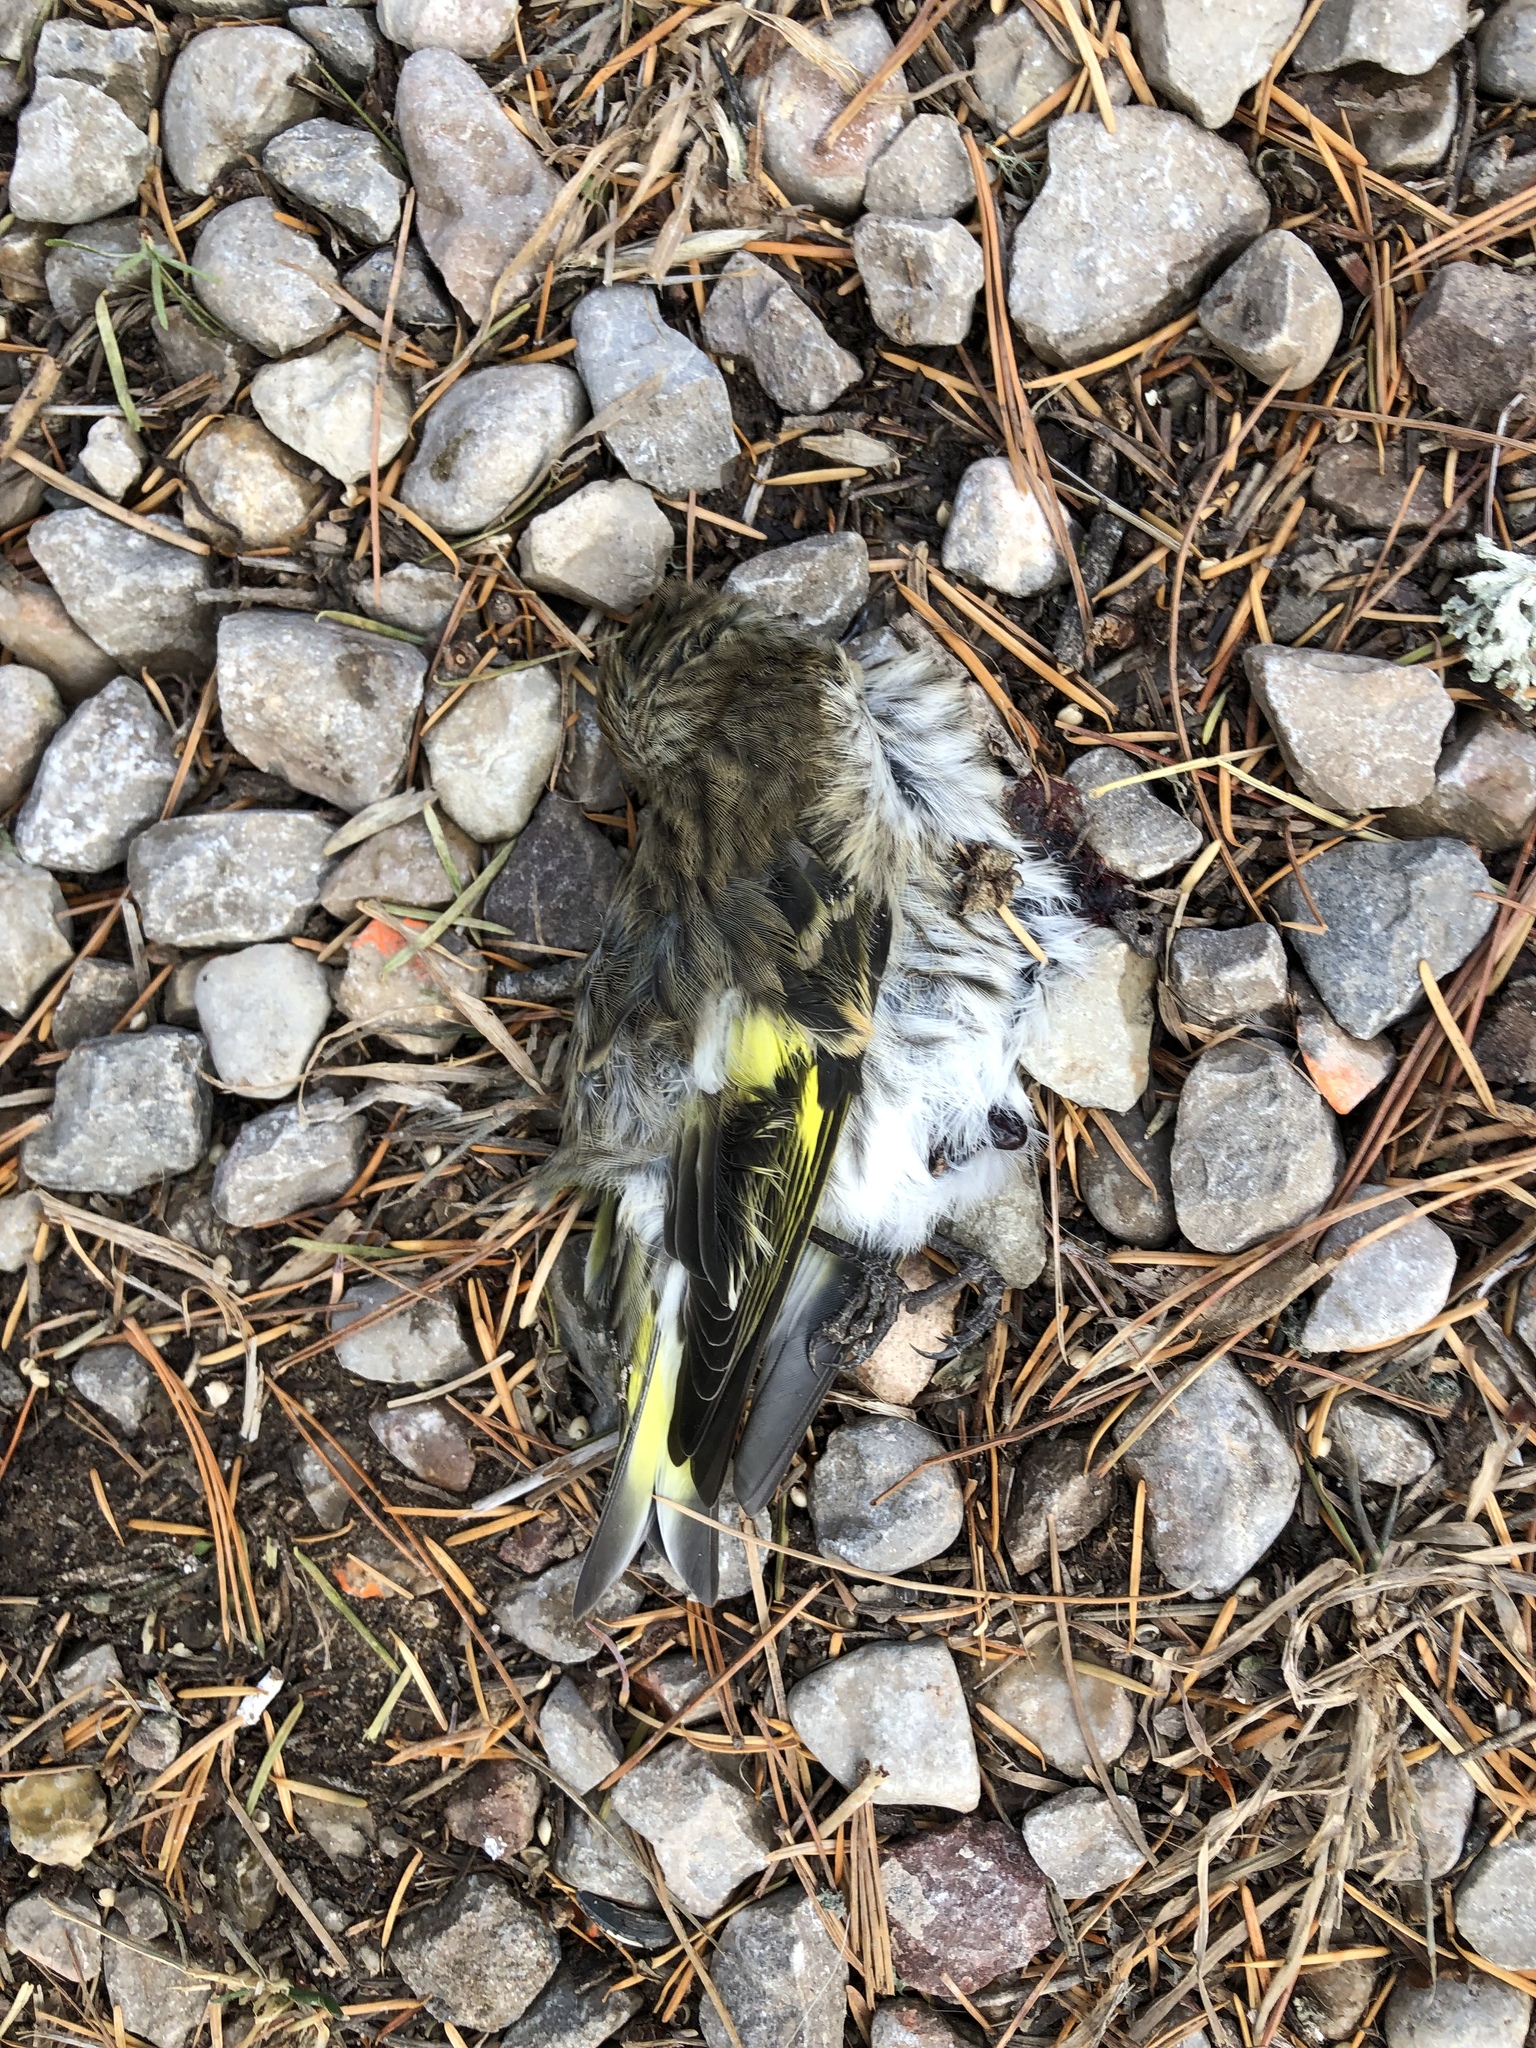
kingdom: Animalia
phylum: Chordata
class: Aves
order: Passeriformes
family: Fringillidae
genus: Spinus
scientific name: Spinus pinus
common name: Pine siskin
